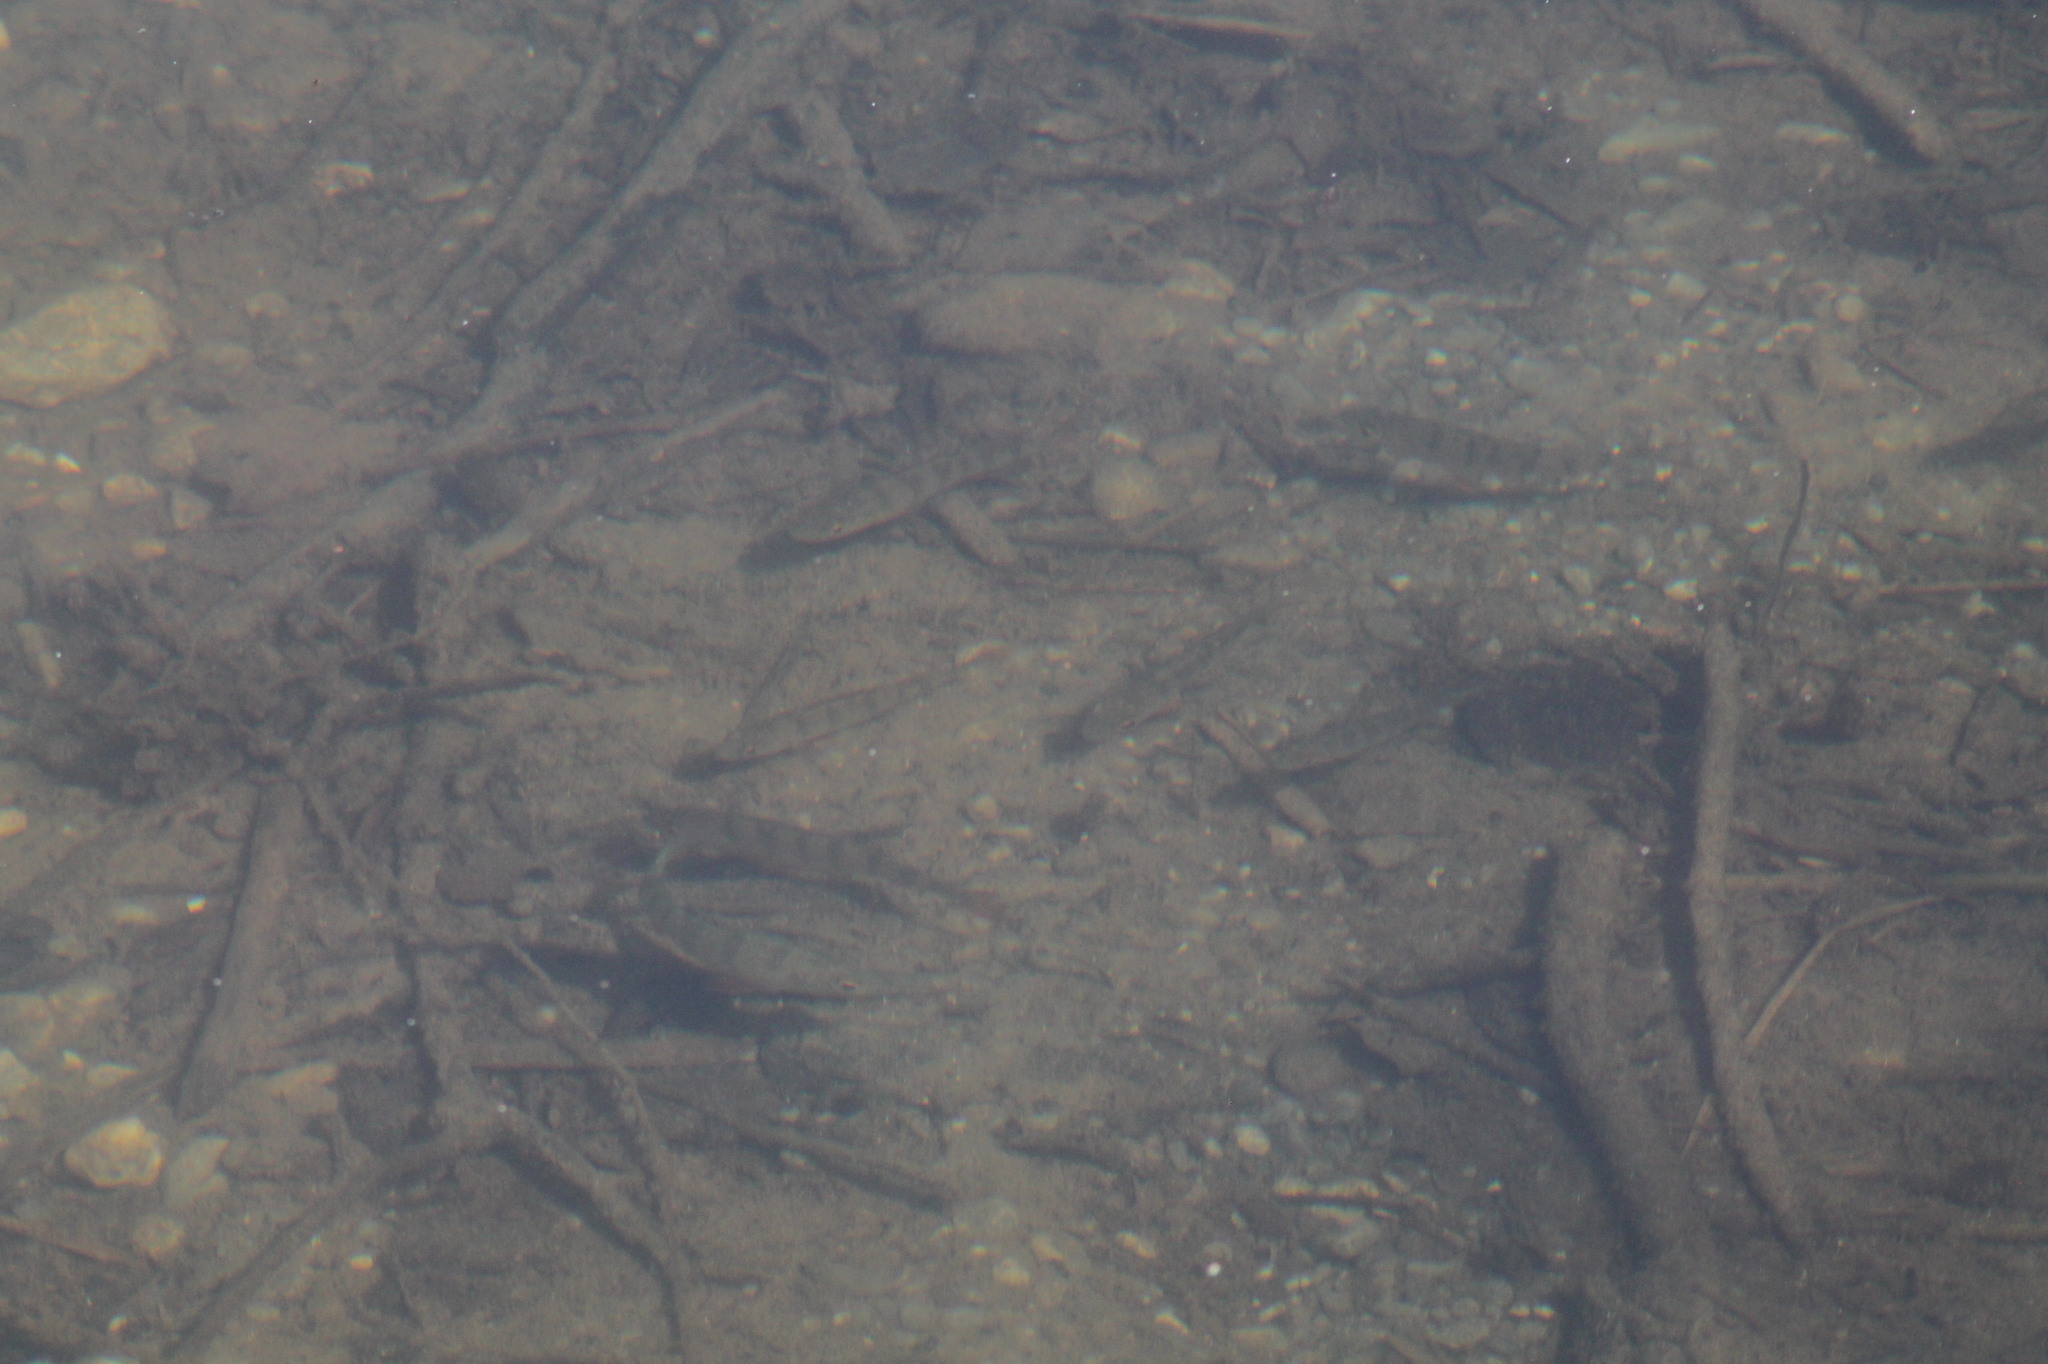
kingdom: Animalia
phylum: Chordata
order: Perciformes
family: Percidae
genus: Perca
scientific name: Perca fluviatilis
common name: Perch
